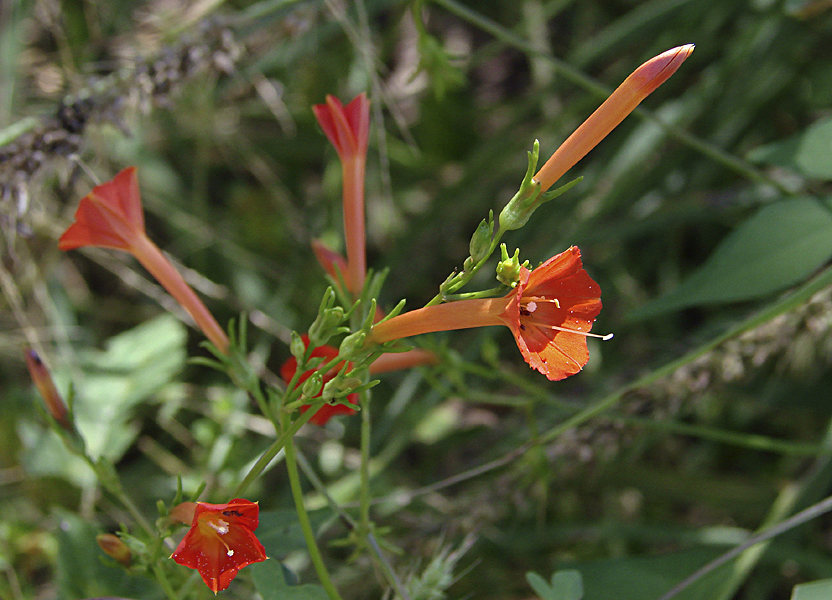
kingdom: Plantae
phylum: Tracheophyta
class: Magnoliopsida
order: Solanales
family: Convolvulaceae
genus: Ipomoea
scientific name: Ipomoea cristulata
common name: Trans-pecos morning-glory
